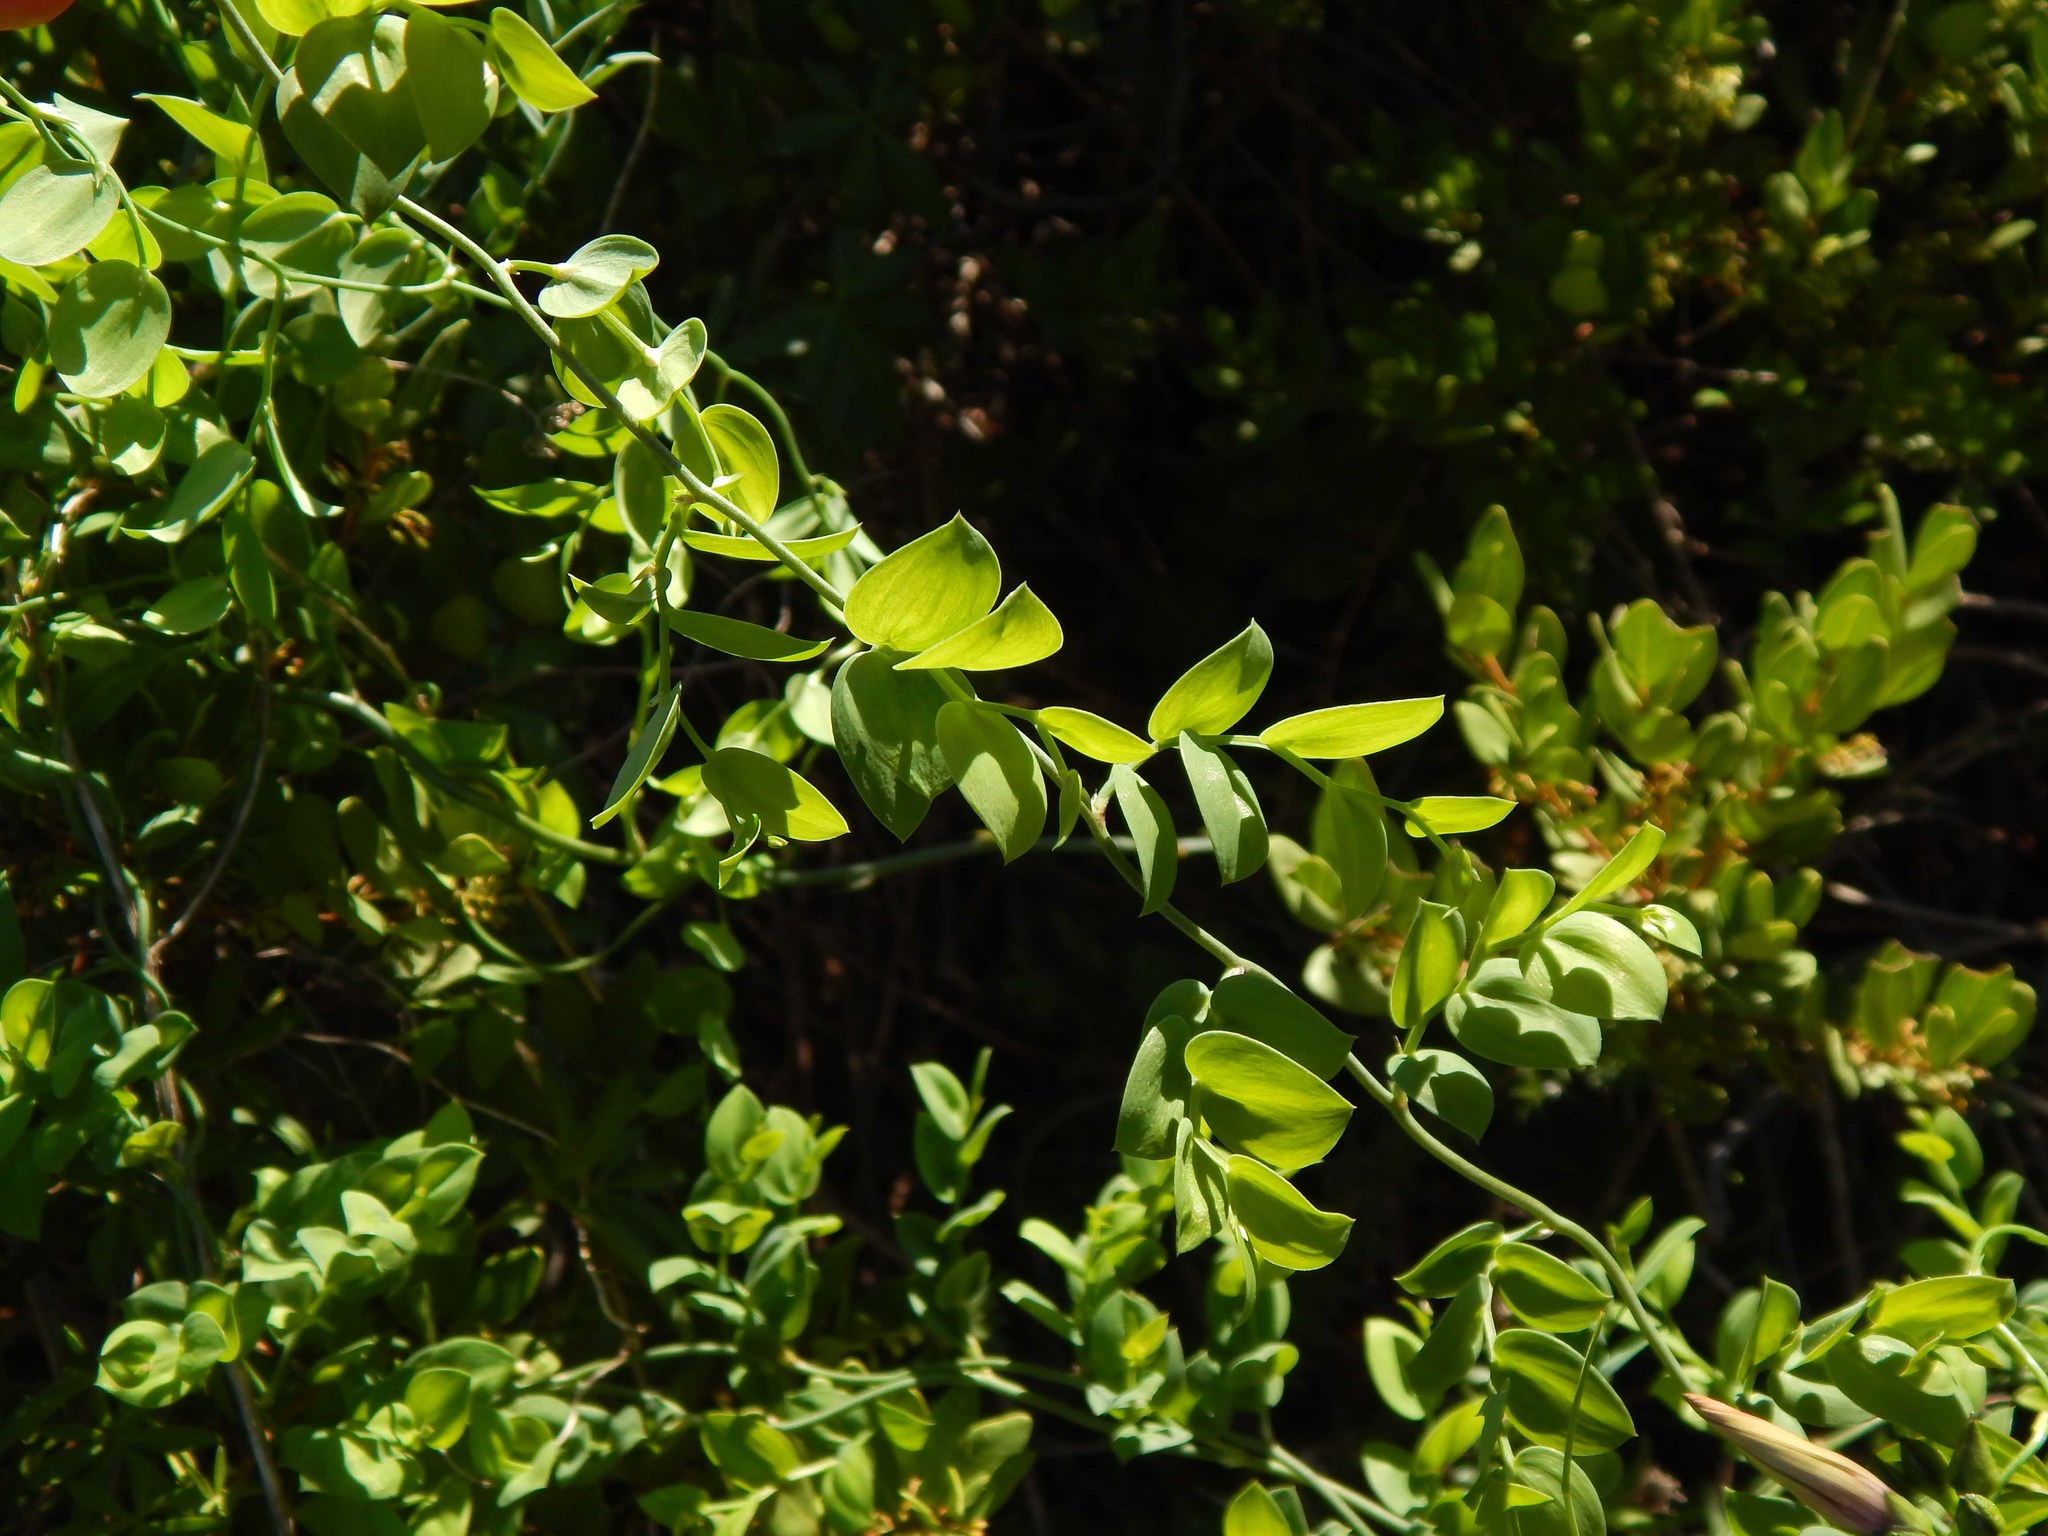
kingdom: Plantae
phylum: Tracheophyta
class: Liliopsida
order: Asparagales
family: Asparagaceae
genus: Asparagus
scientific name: Asparagus ovatus
